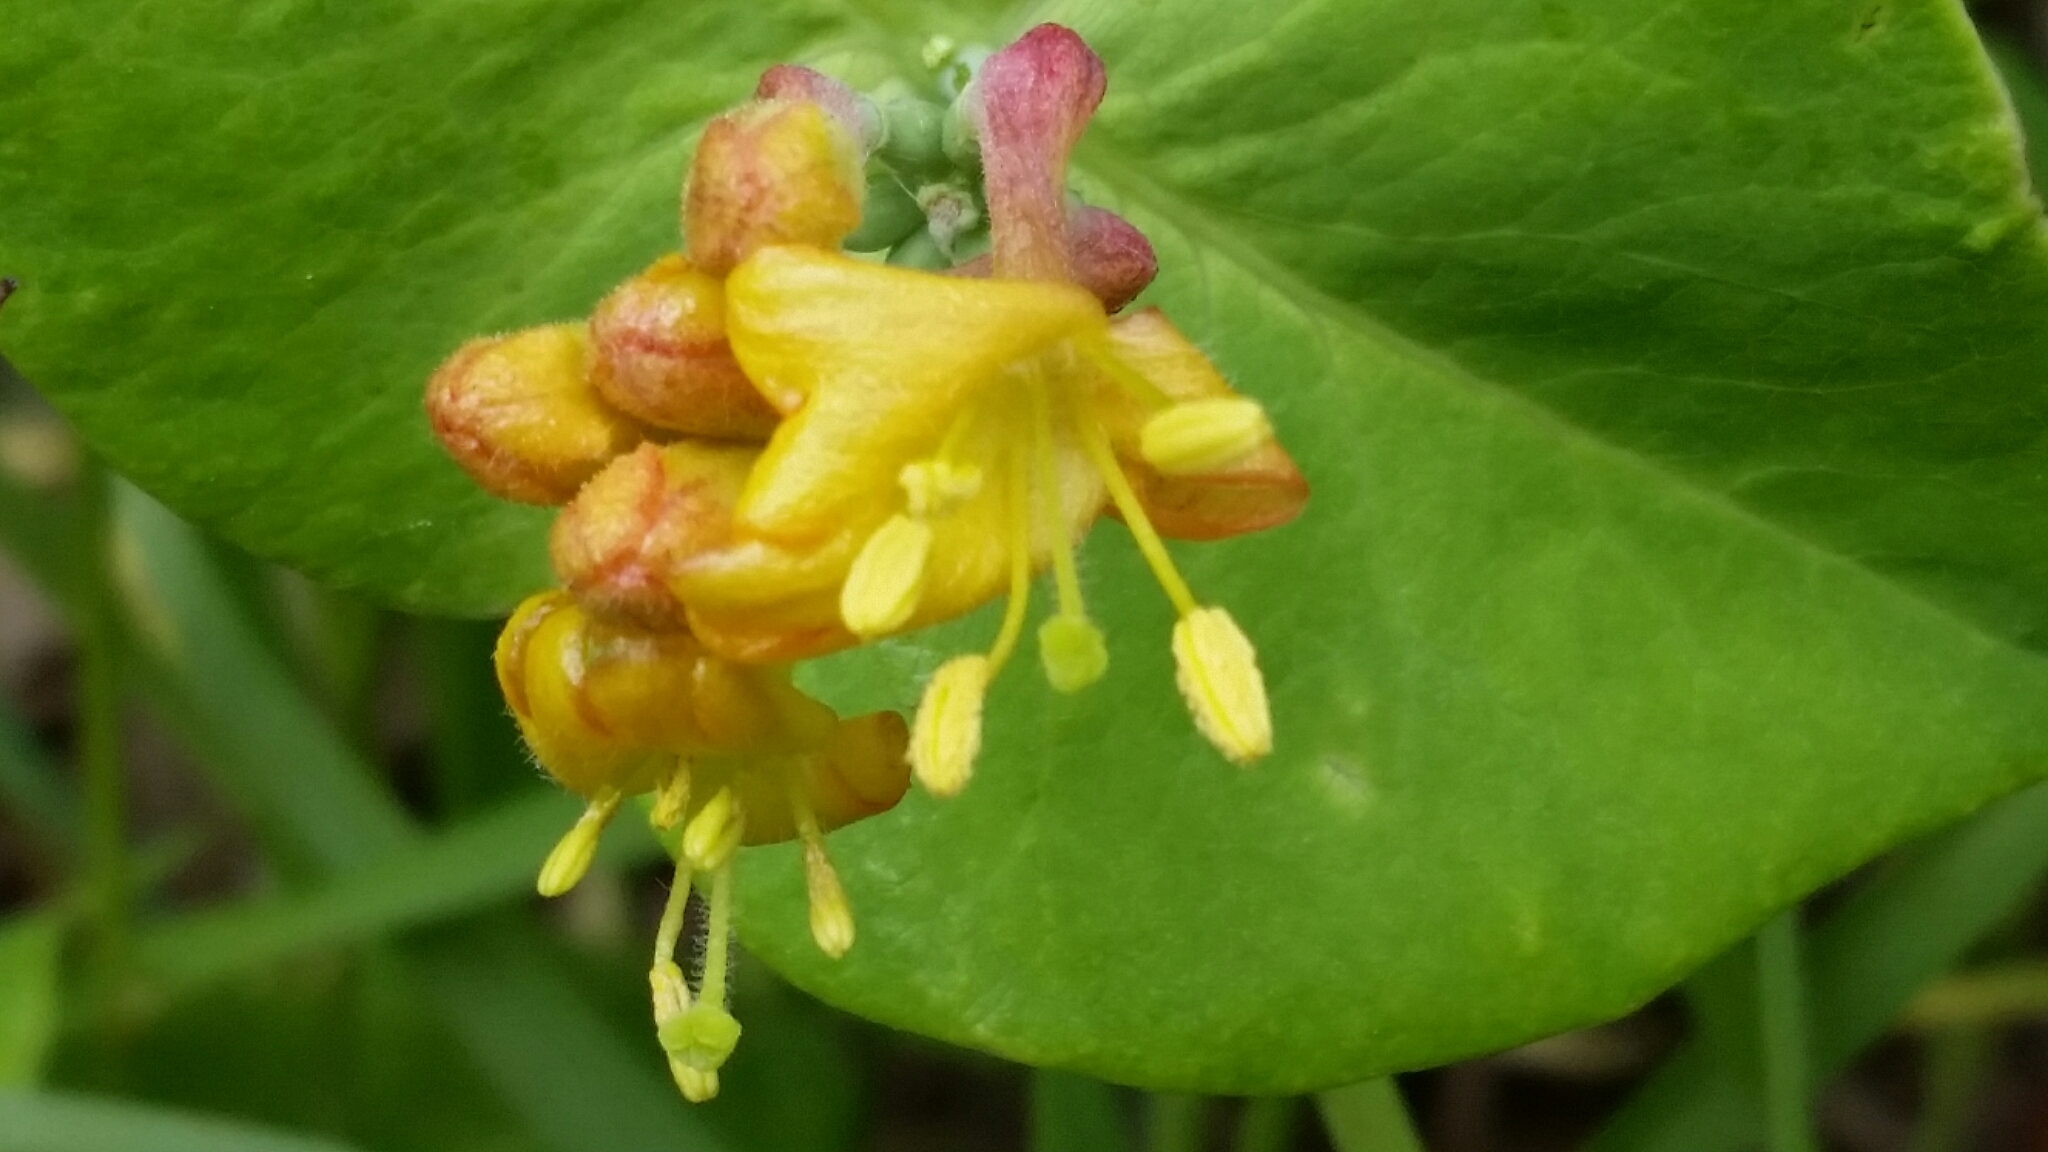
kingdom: Plantae
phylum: Tracheophyta
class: Magnoliopsida
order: Dipsacales
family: Caprifoliaceae
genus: Lonicera
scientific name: Lonicera dioica
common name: Limber honeysuckle
